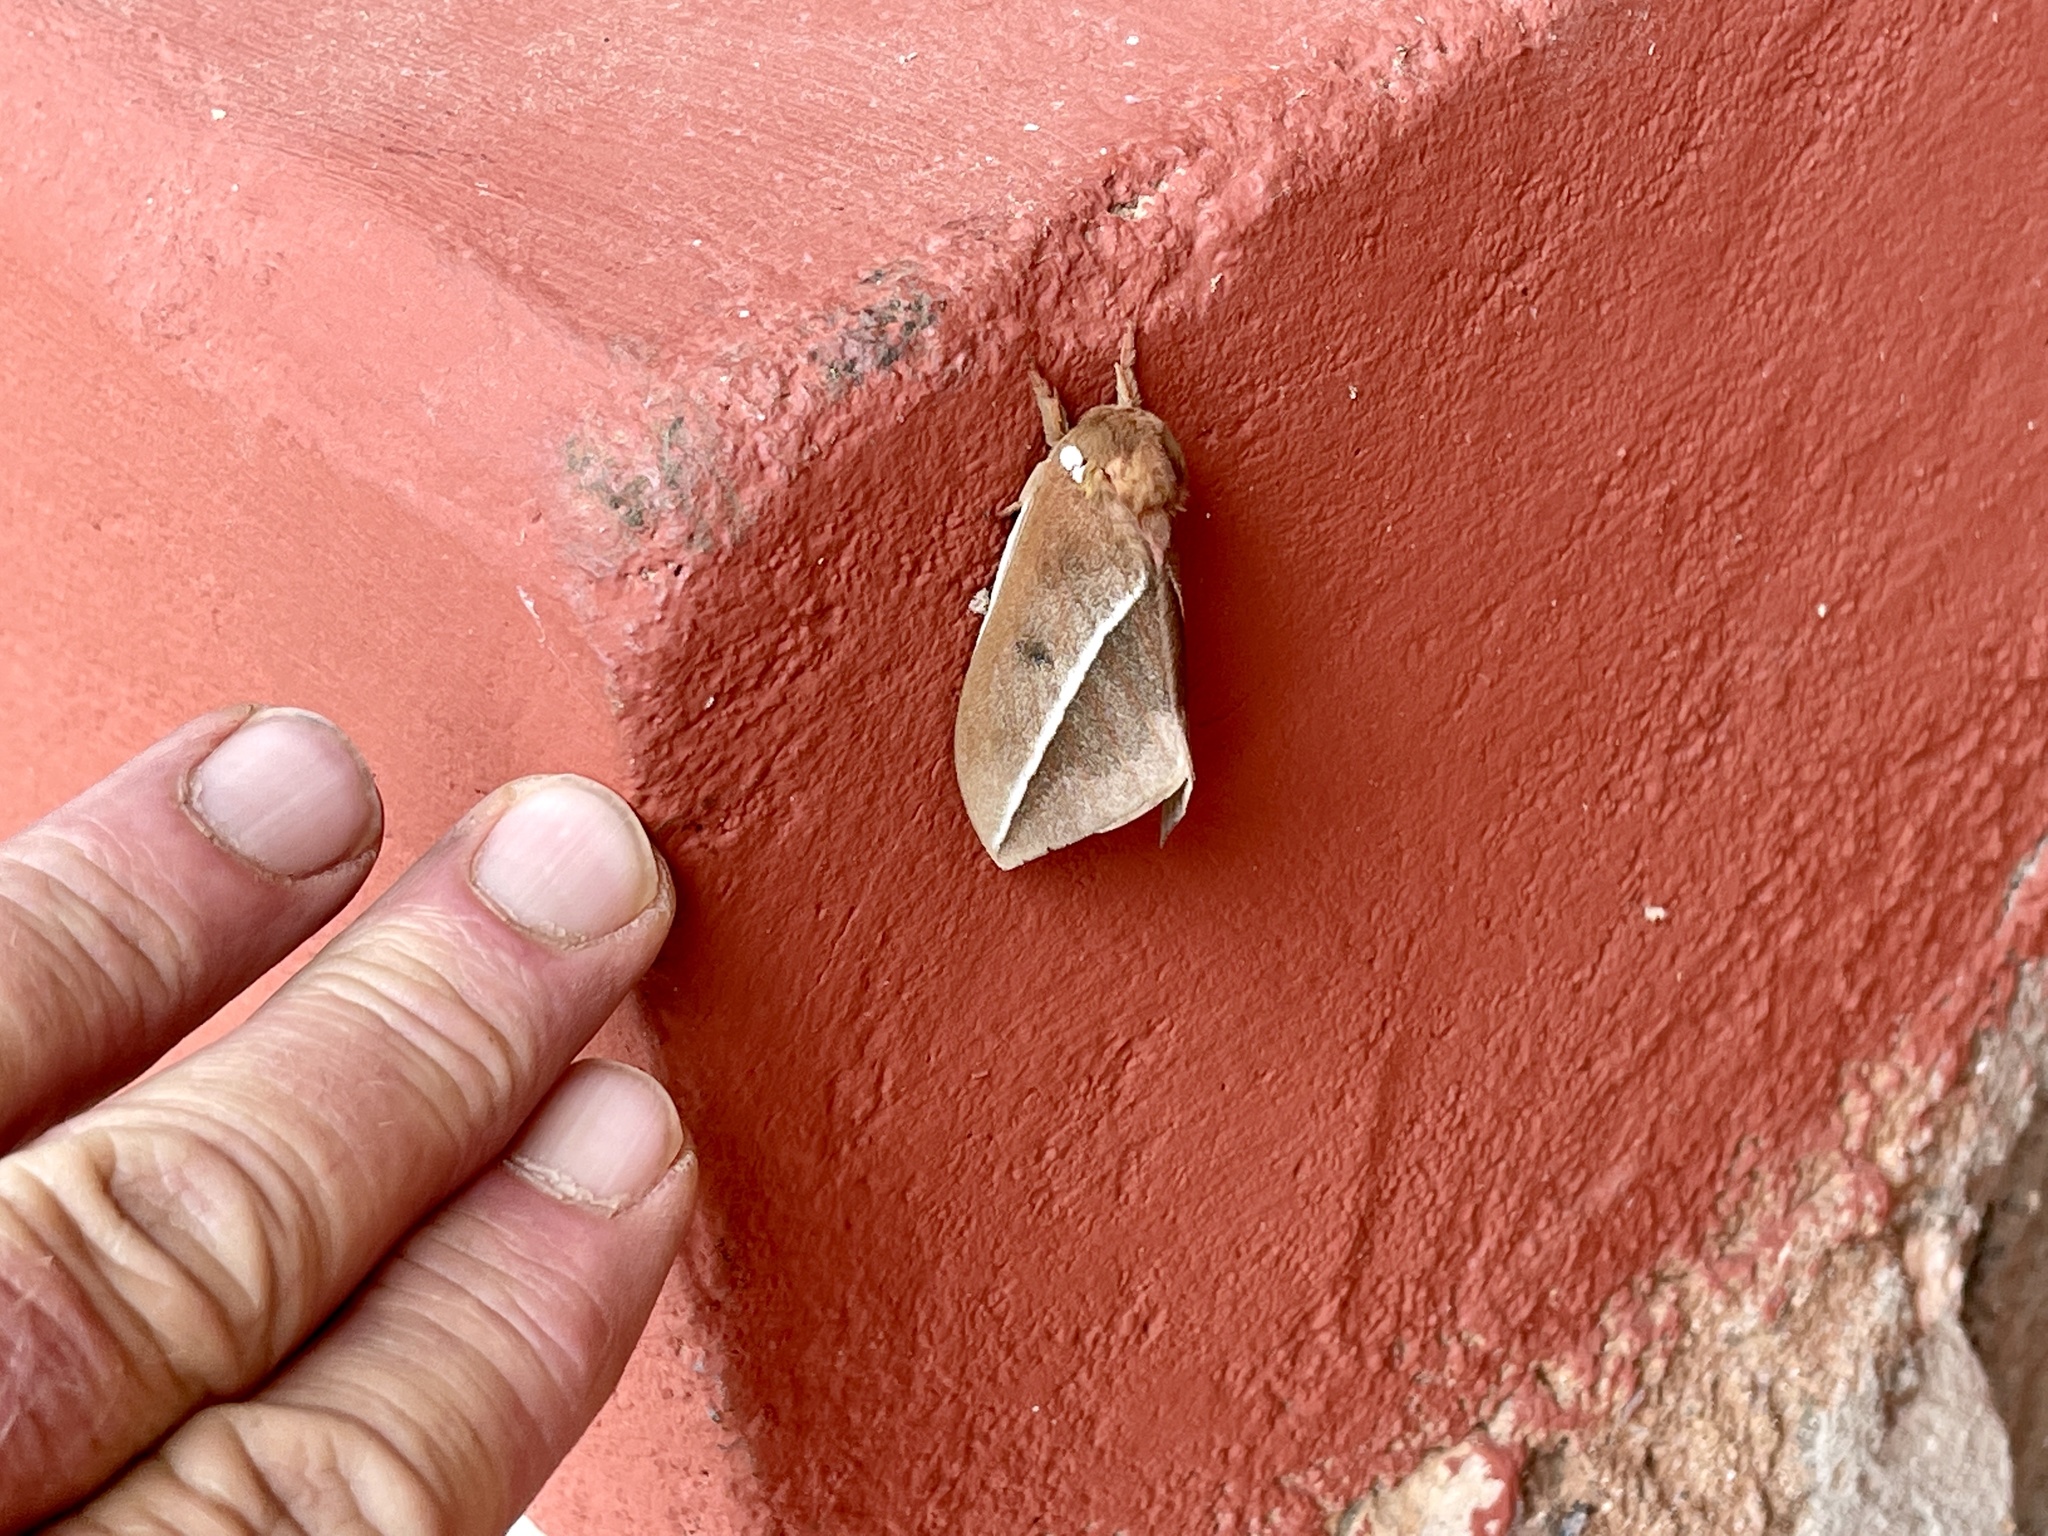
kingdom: Animalia
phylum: Arthropoda
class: Insecta
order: Lepidoptera
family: Saturniidae
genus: Automeris
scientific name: Automeris zephyria
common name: Zephyr eyed silkmoth
